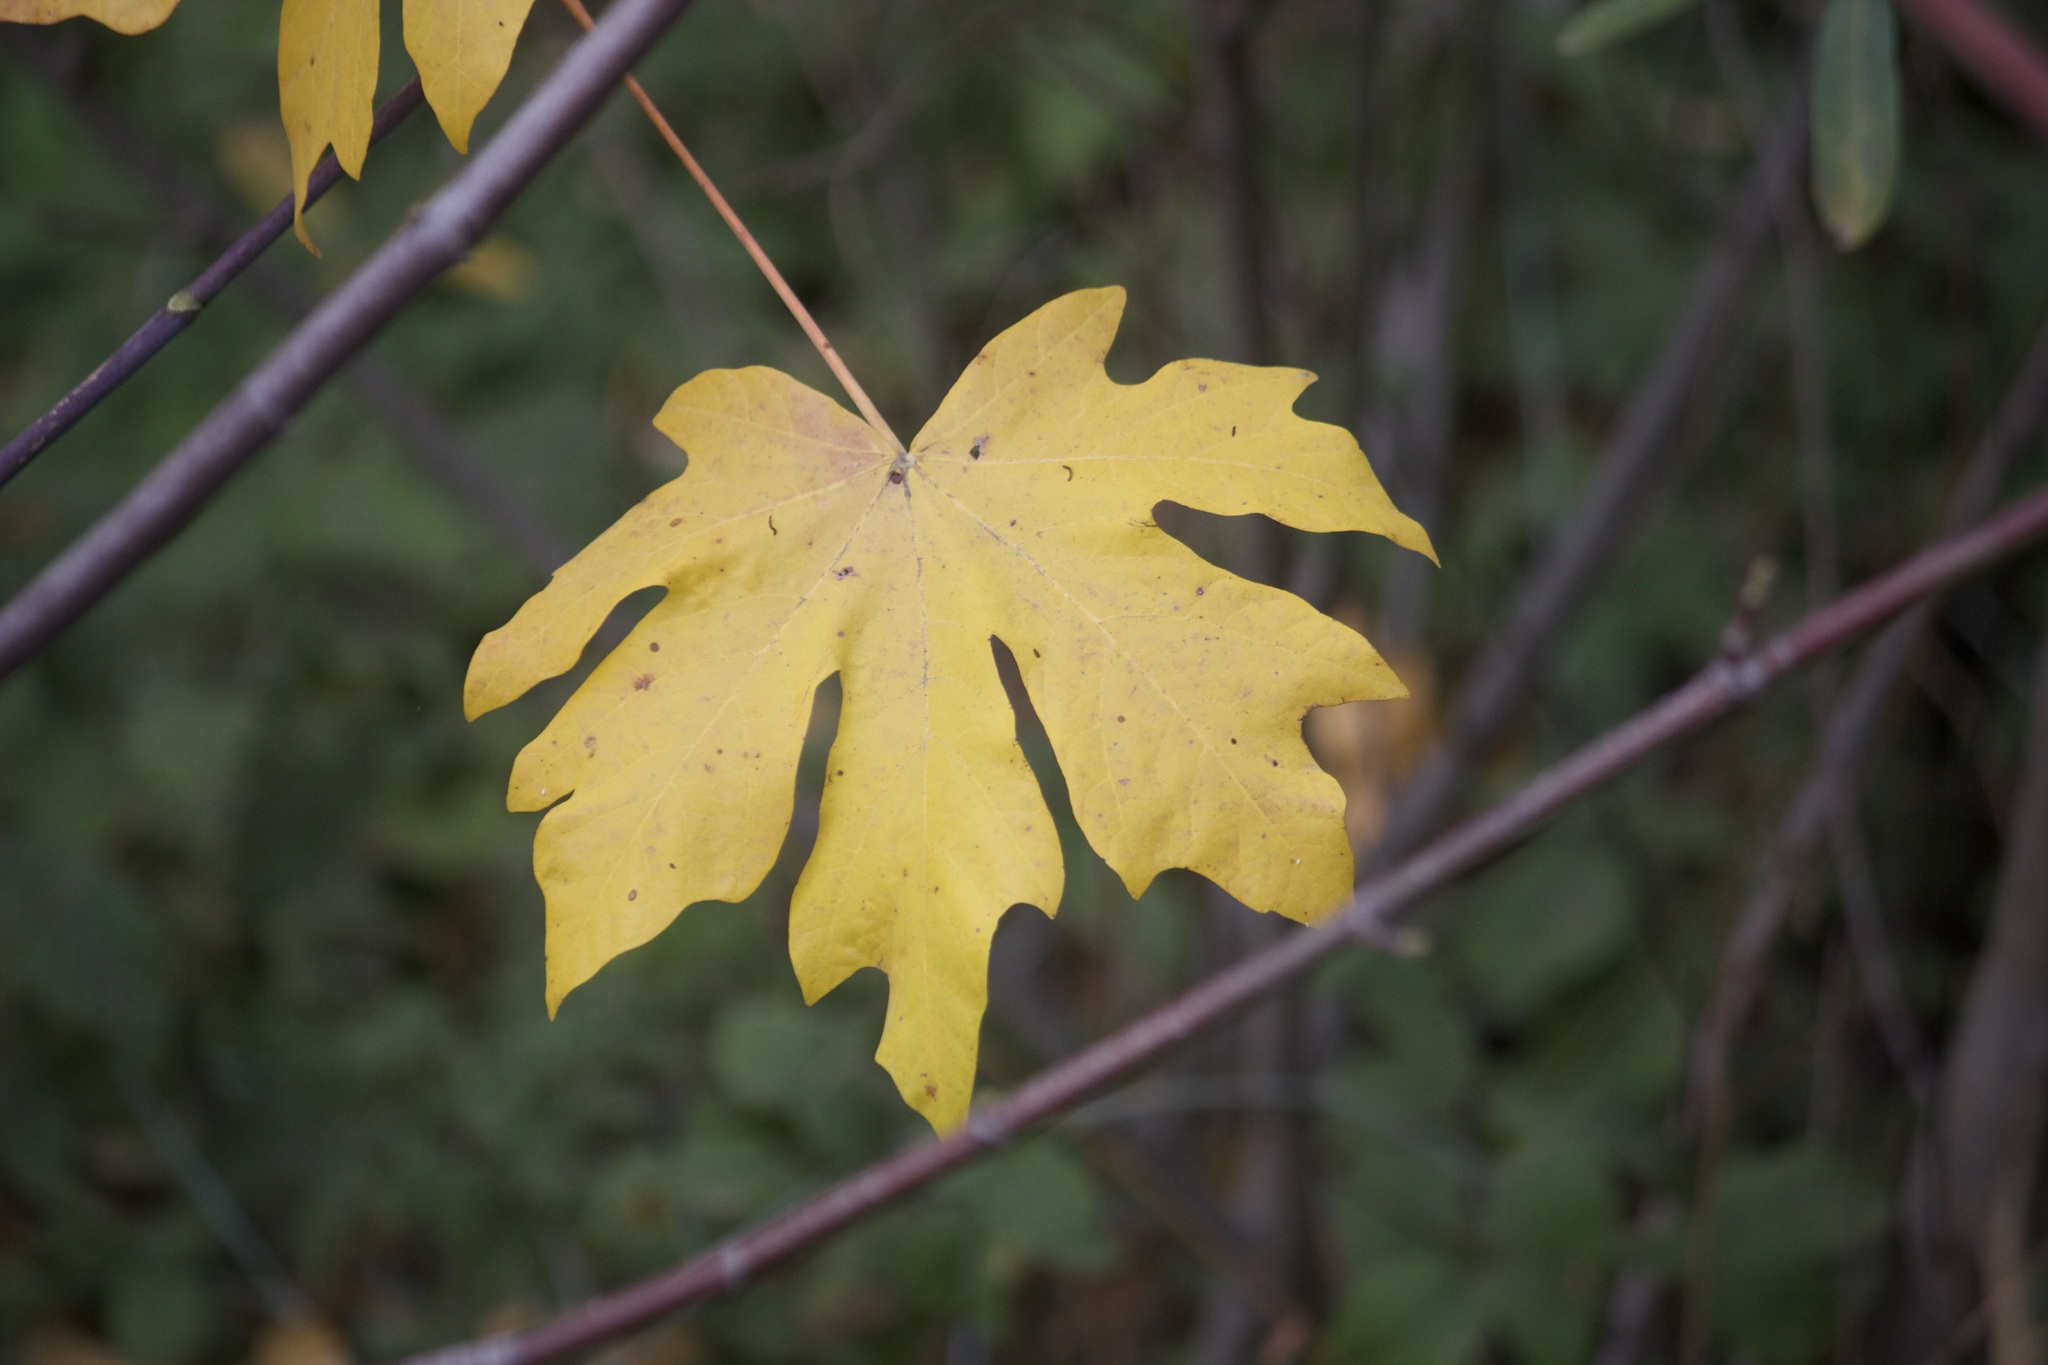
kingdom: Plantae
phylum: Tracheophyta
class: Magnoliopsida
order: Sapindales
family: Sapindaceae
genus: Acer
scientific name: Acer macrophyllum
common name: Oregon maple
